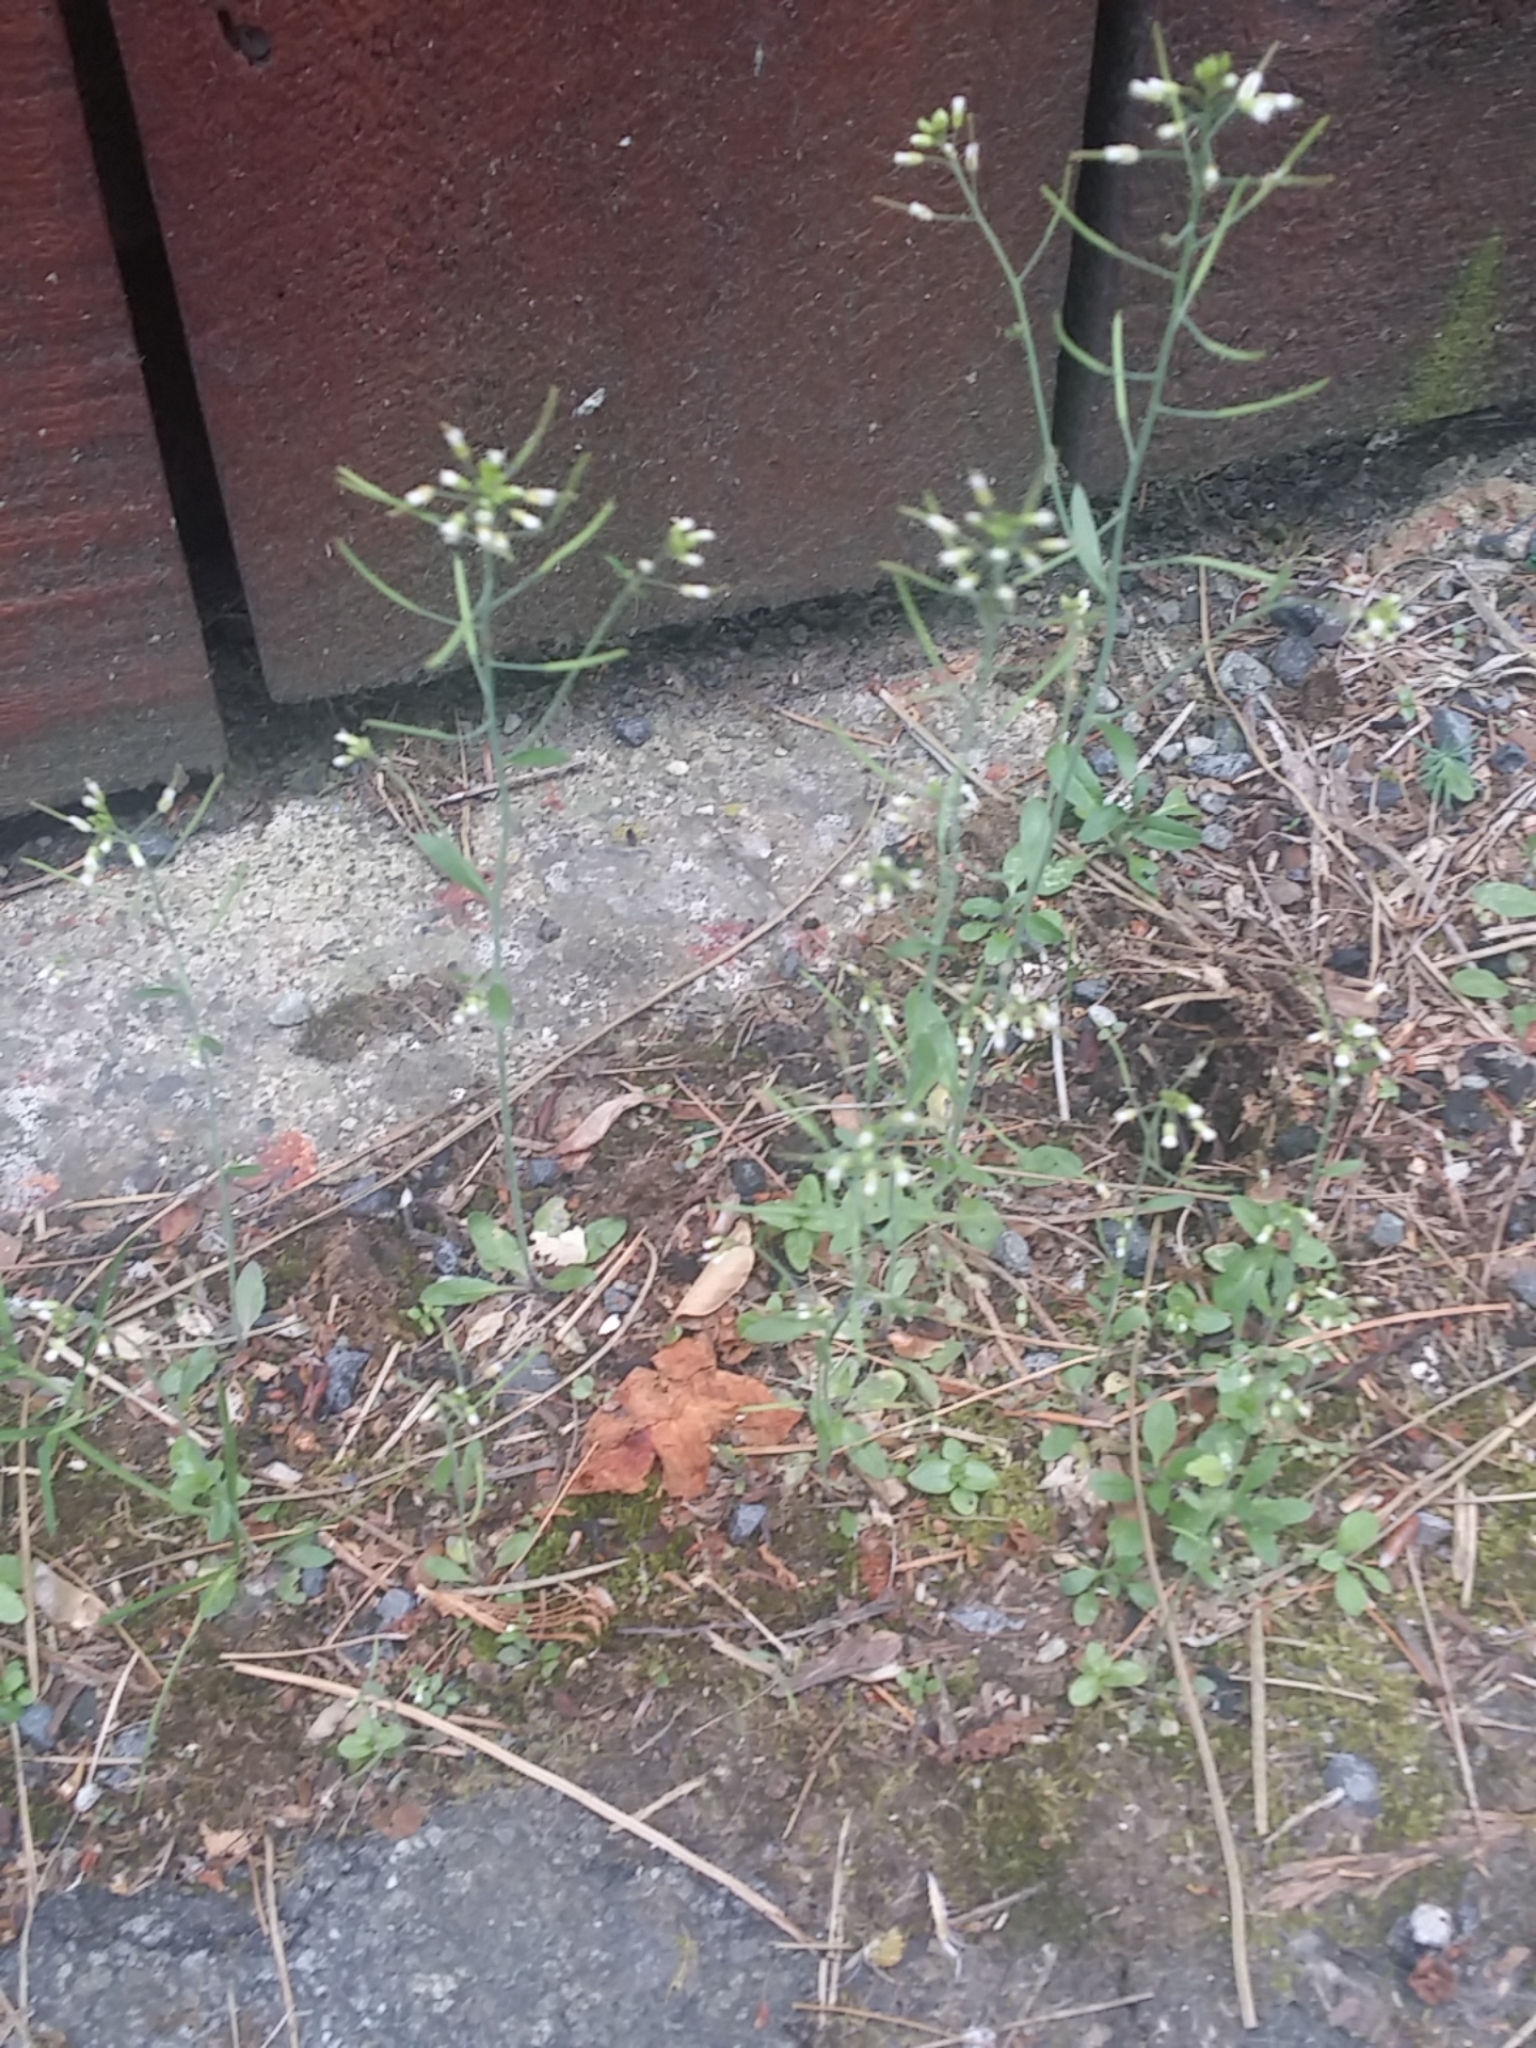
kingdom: Plantae
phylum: Tracheophyta
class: Magnoliopsida
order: Brassicales
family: Brassicaceae
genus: Arabidopsis
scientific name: Arabidopsis thaliana
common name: Thale cress
